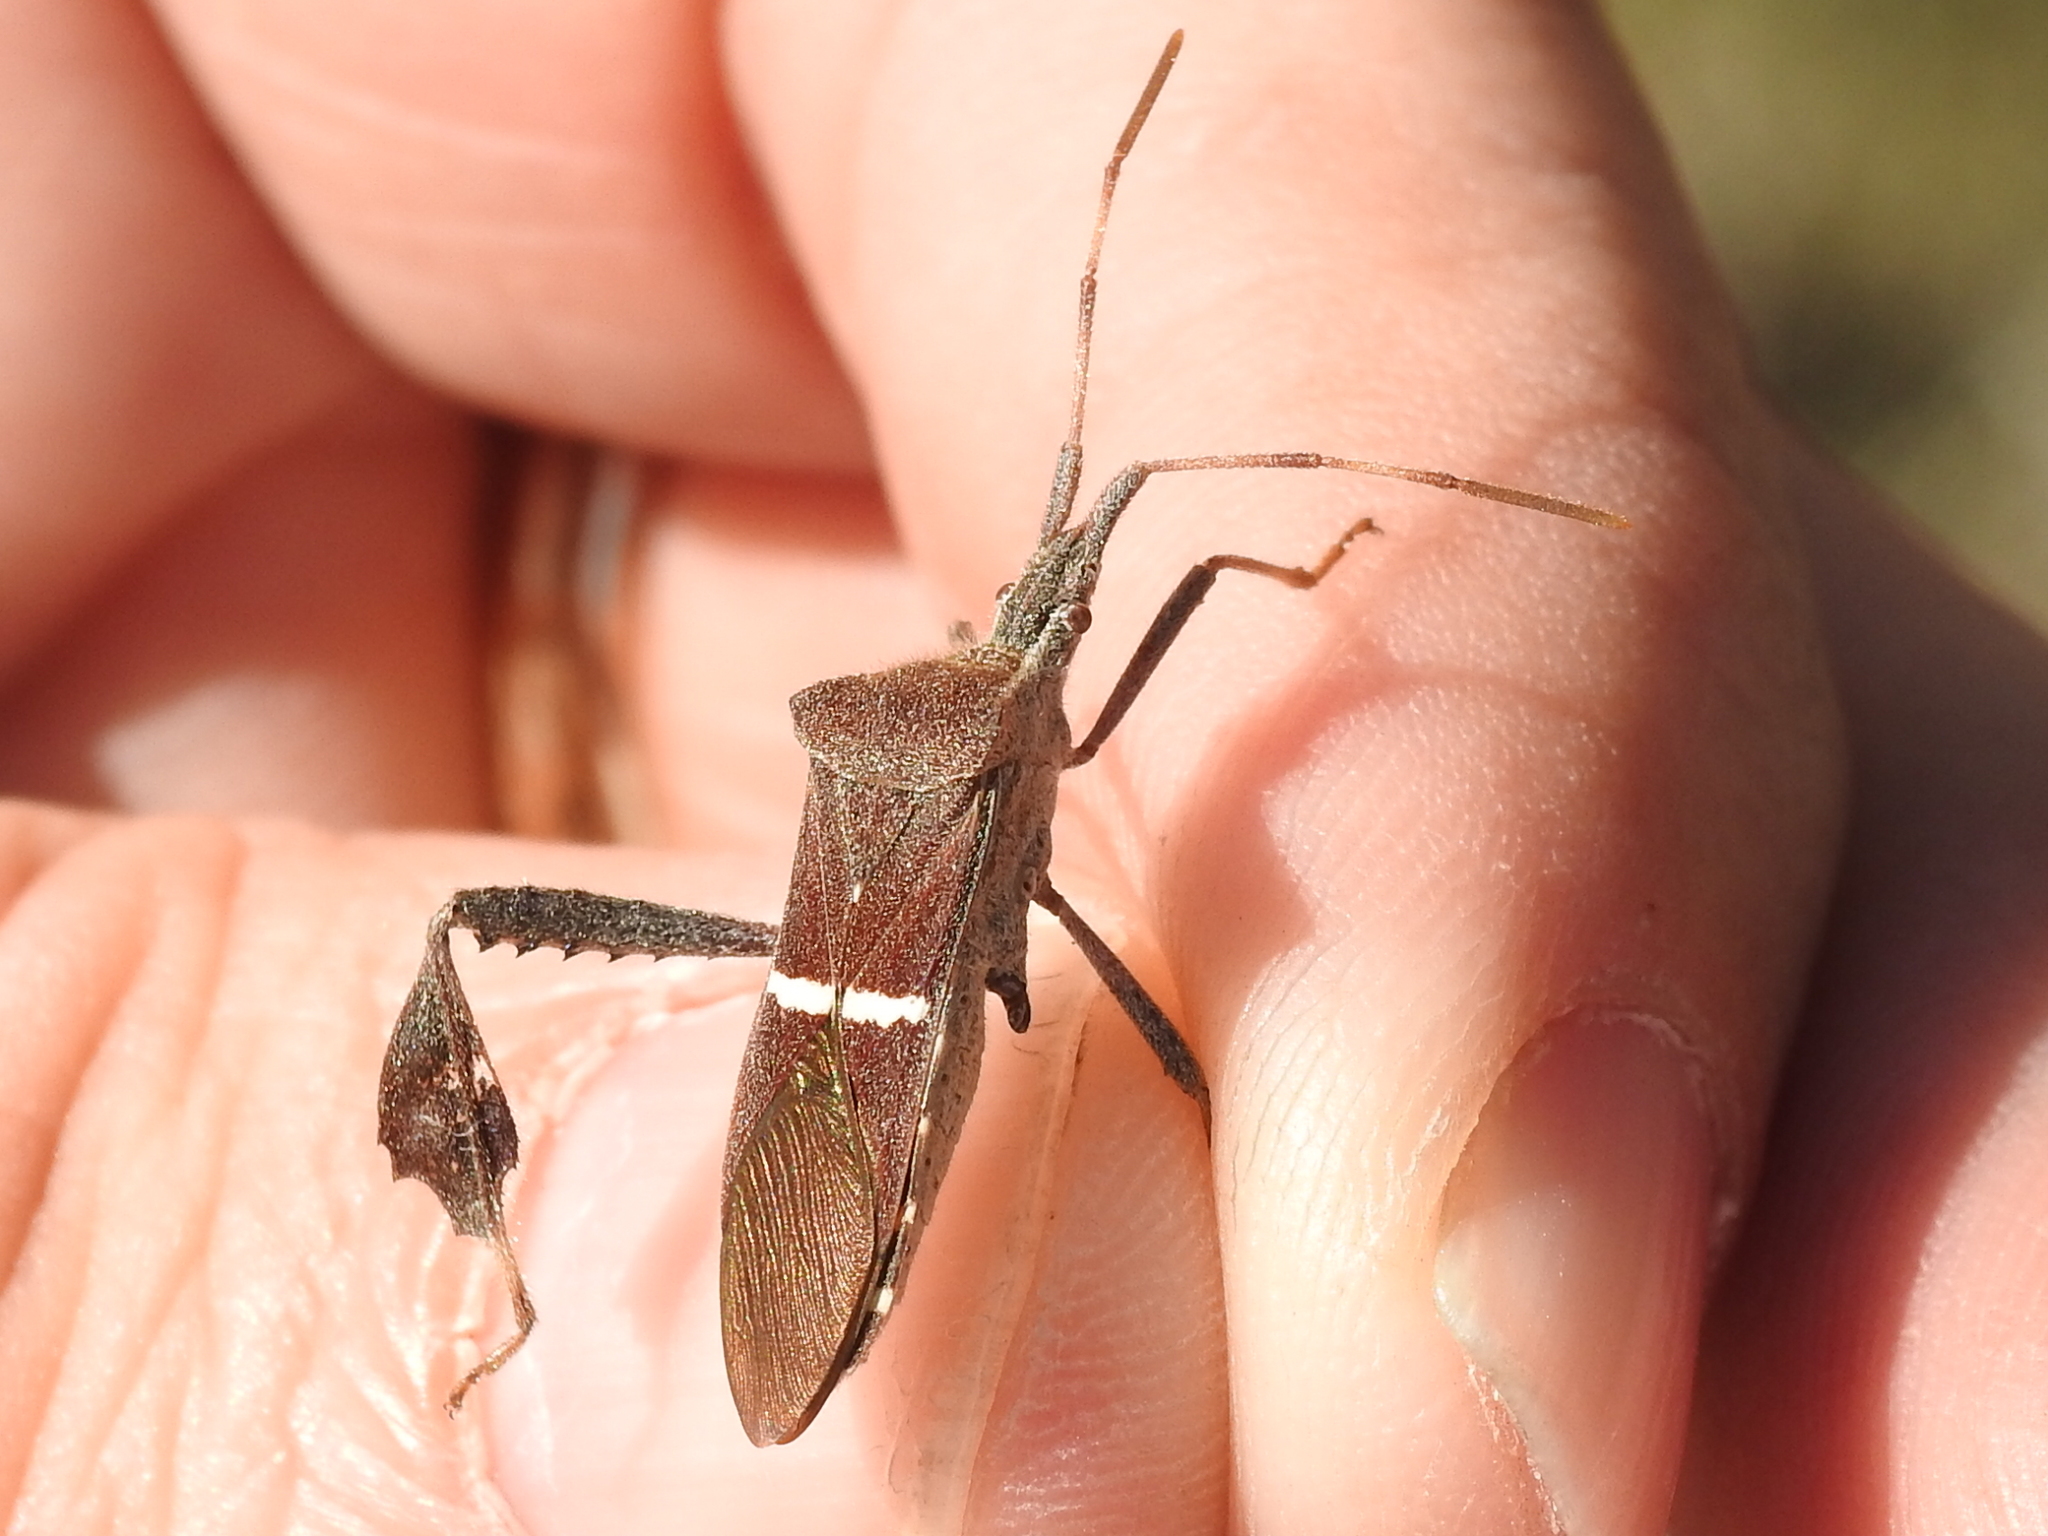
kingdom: Animalia
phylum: Arthropoda
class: Insecta
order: Hemiptera
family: Coreidae
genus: Leptoglossus
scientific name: Leptoglossus phyllopus
